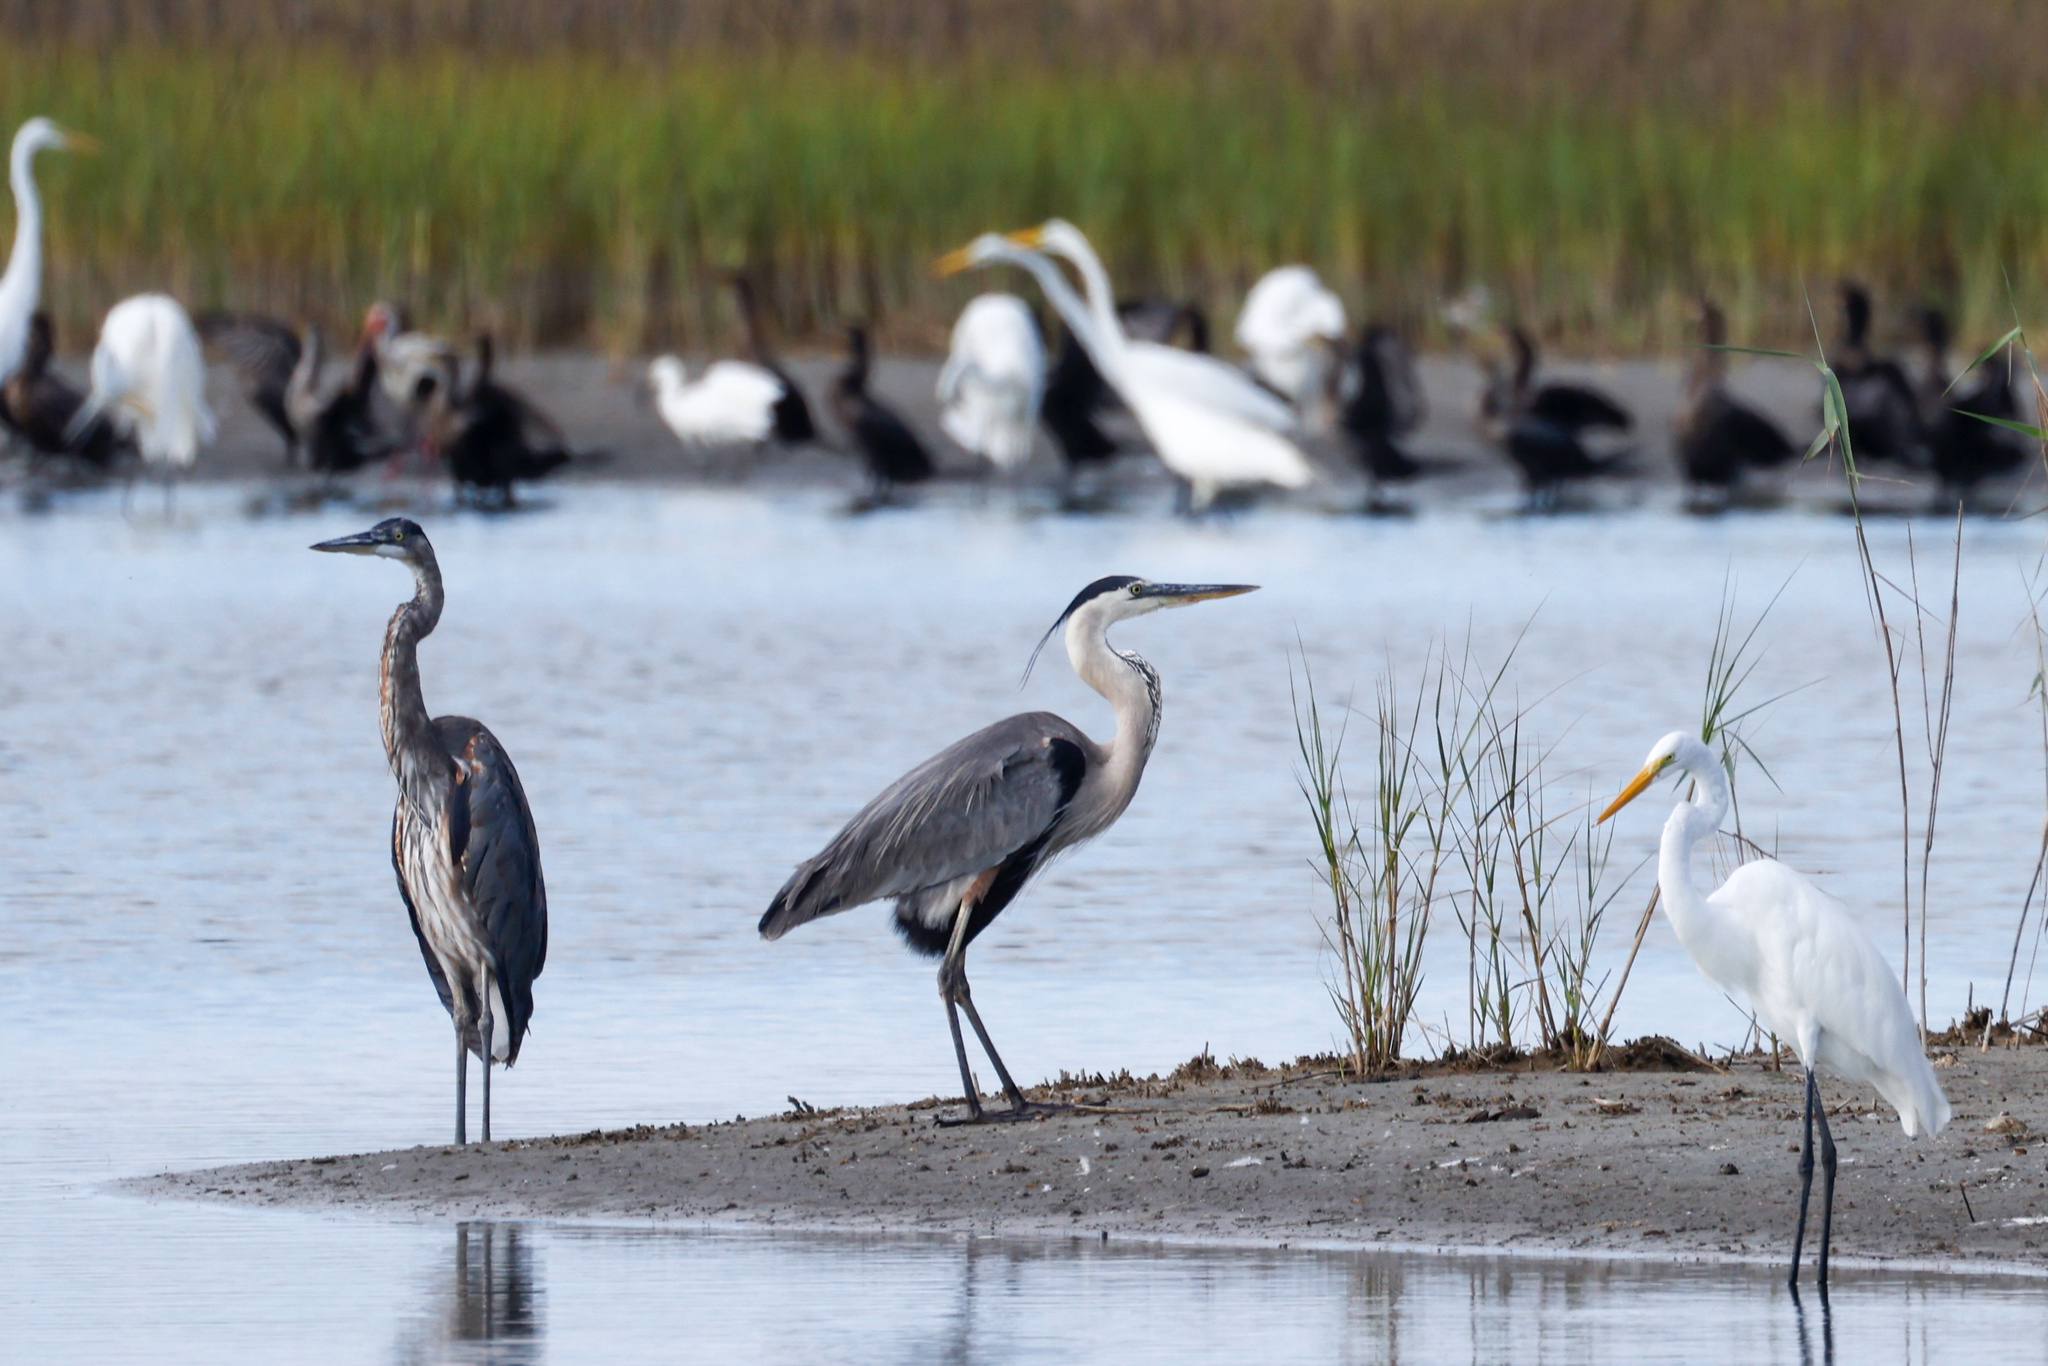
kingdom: Animalia
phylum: Chordata
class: Aves
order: Pelecaniformes
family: Ardeidae
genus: Ardea
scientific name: Ardea herodias
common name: Great blue heron
